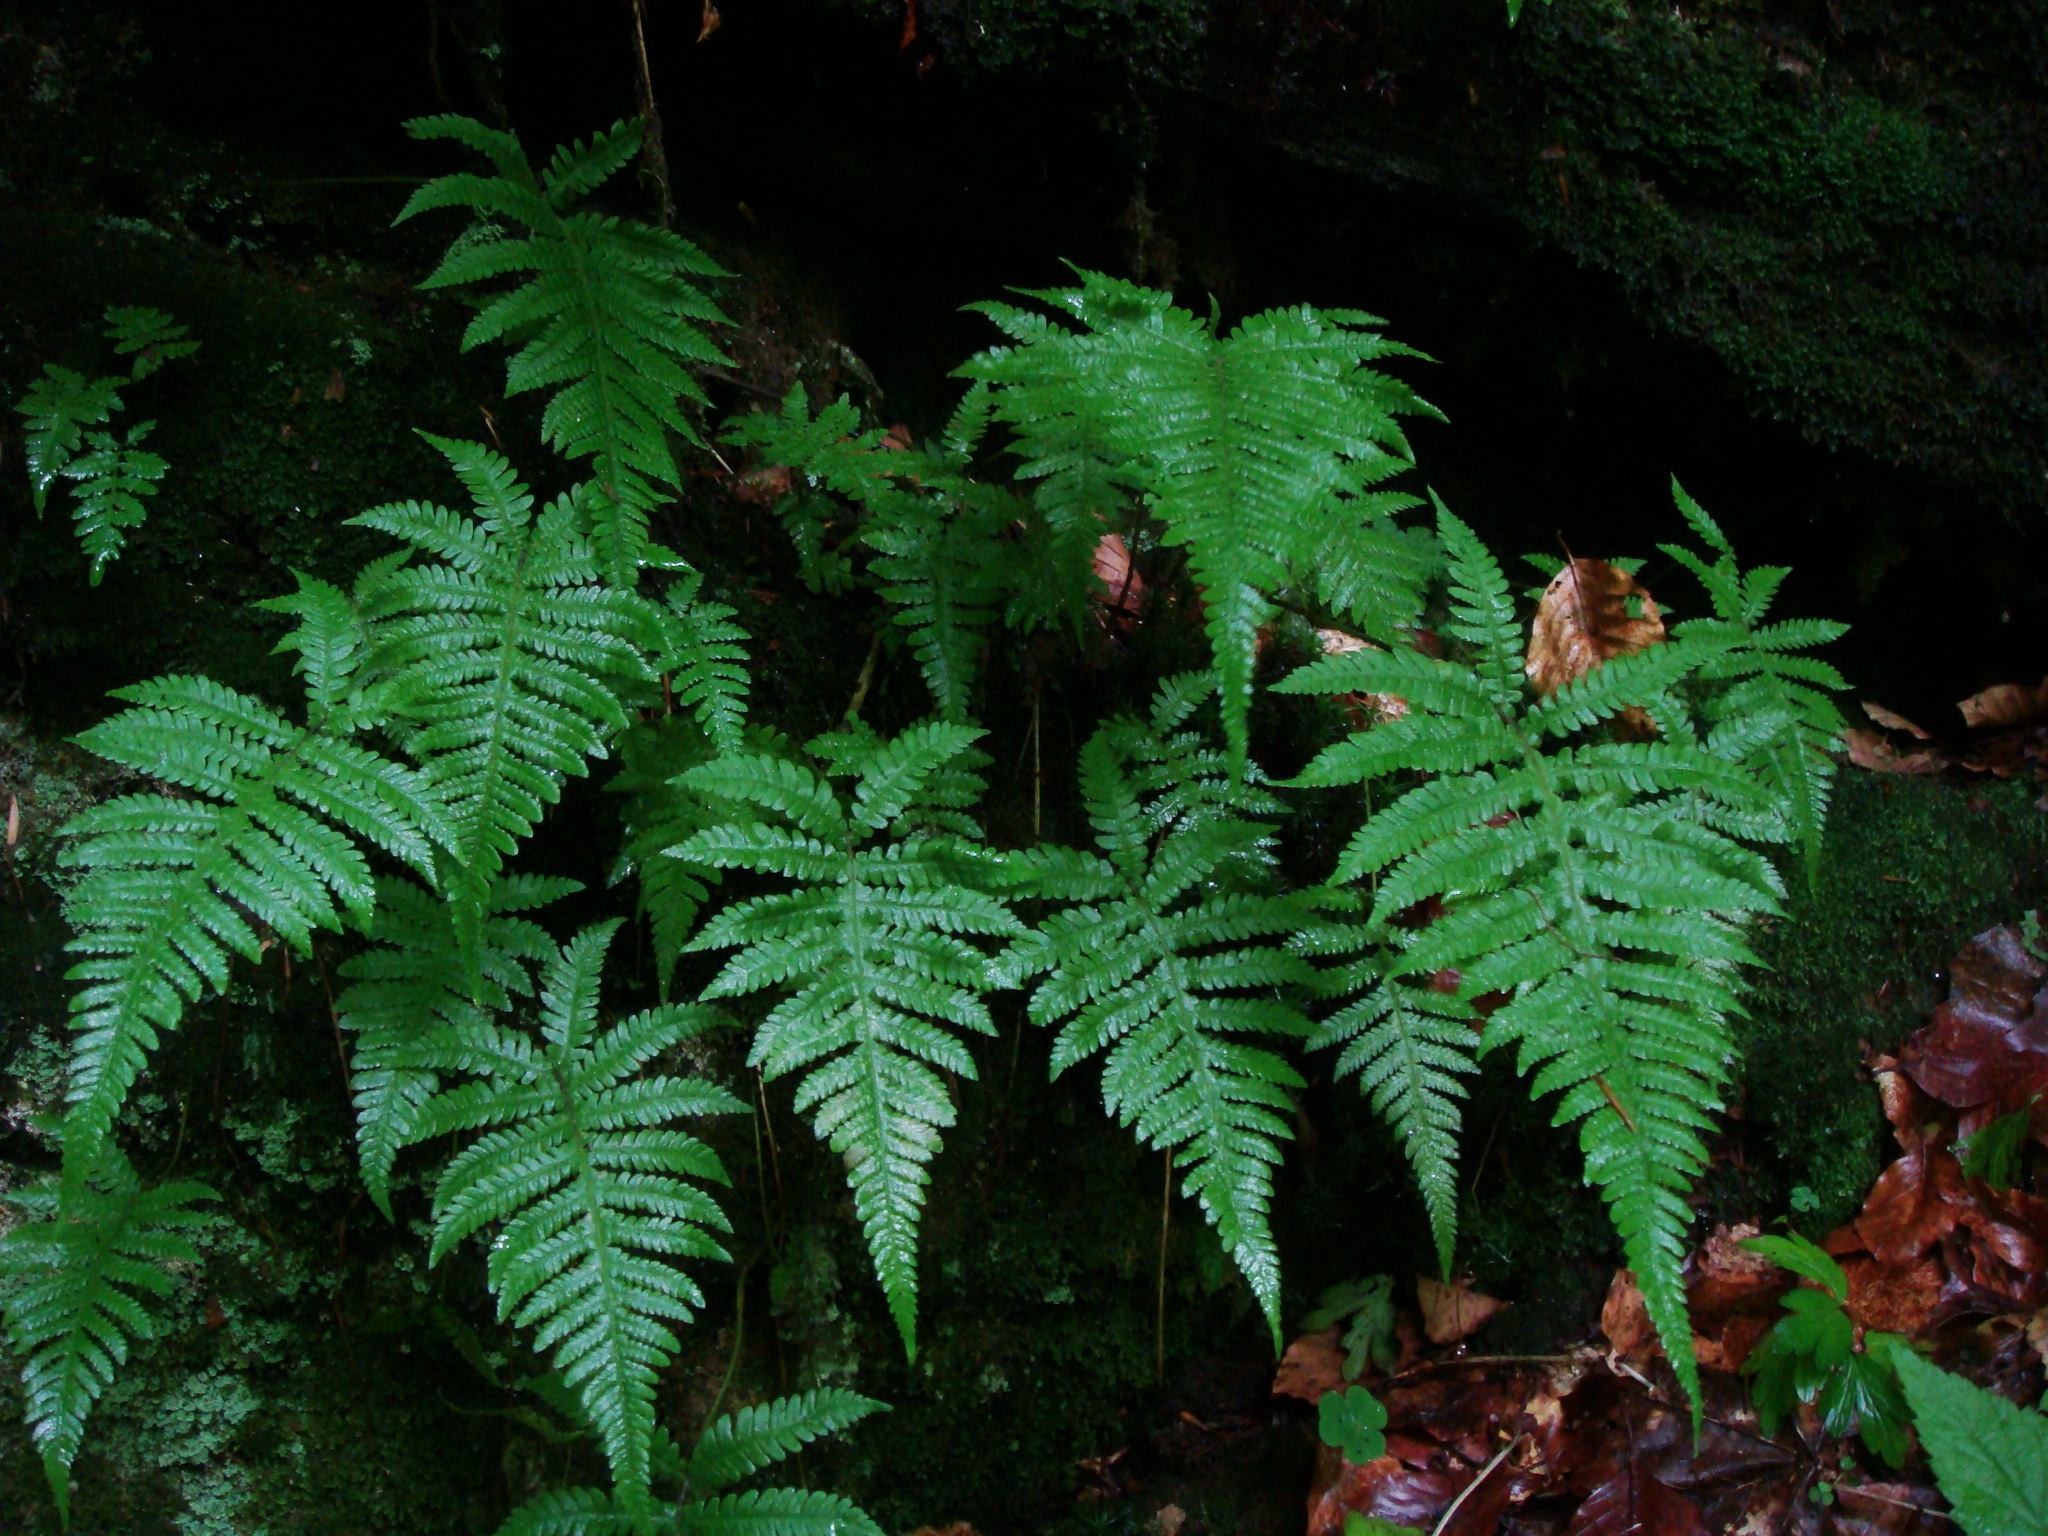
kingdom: Plantae
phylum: Tracheophyta
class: Polypodiopsida
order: Polypodiales
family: Thelypteridaceae
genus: Phegopteris
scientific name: Phegopteris connectilis
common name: Beech fern
